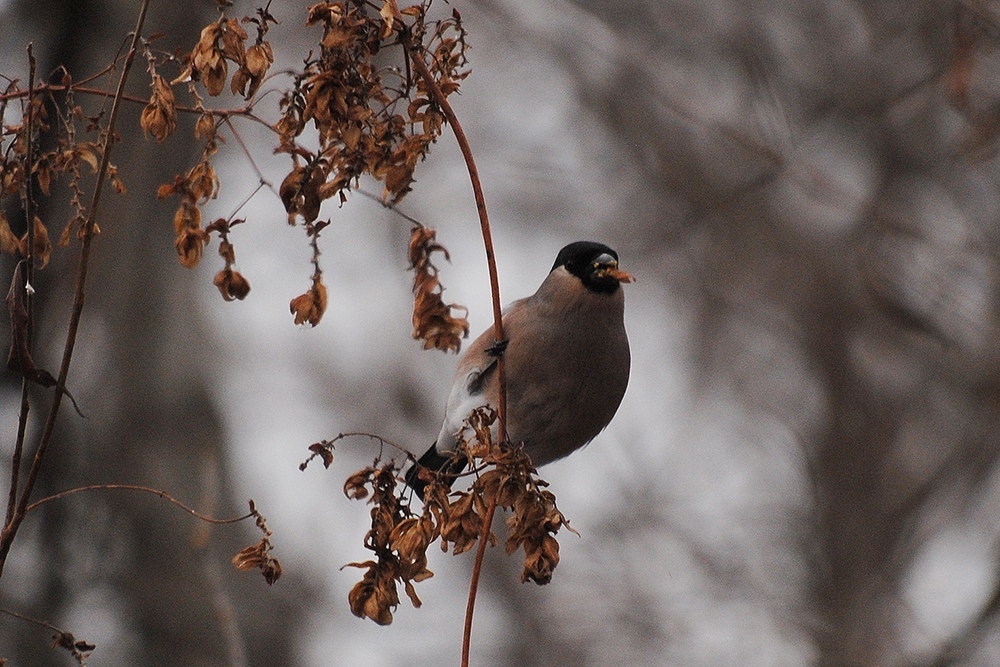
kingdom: Animalia
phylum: Chordata
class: Aves
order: Passeriformes
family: Fringillidae
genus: Pyrrhula
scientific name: Pyrrhula pyrrhula
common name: Eurasian bullfinch
